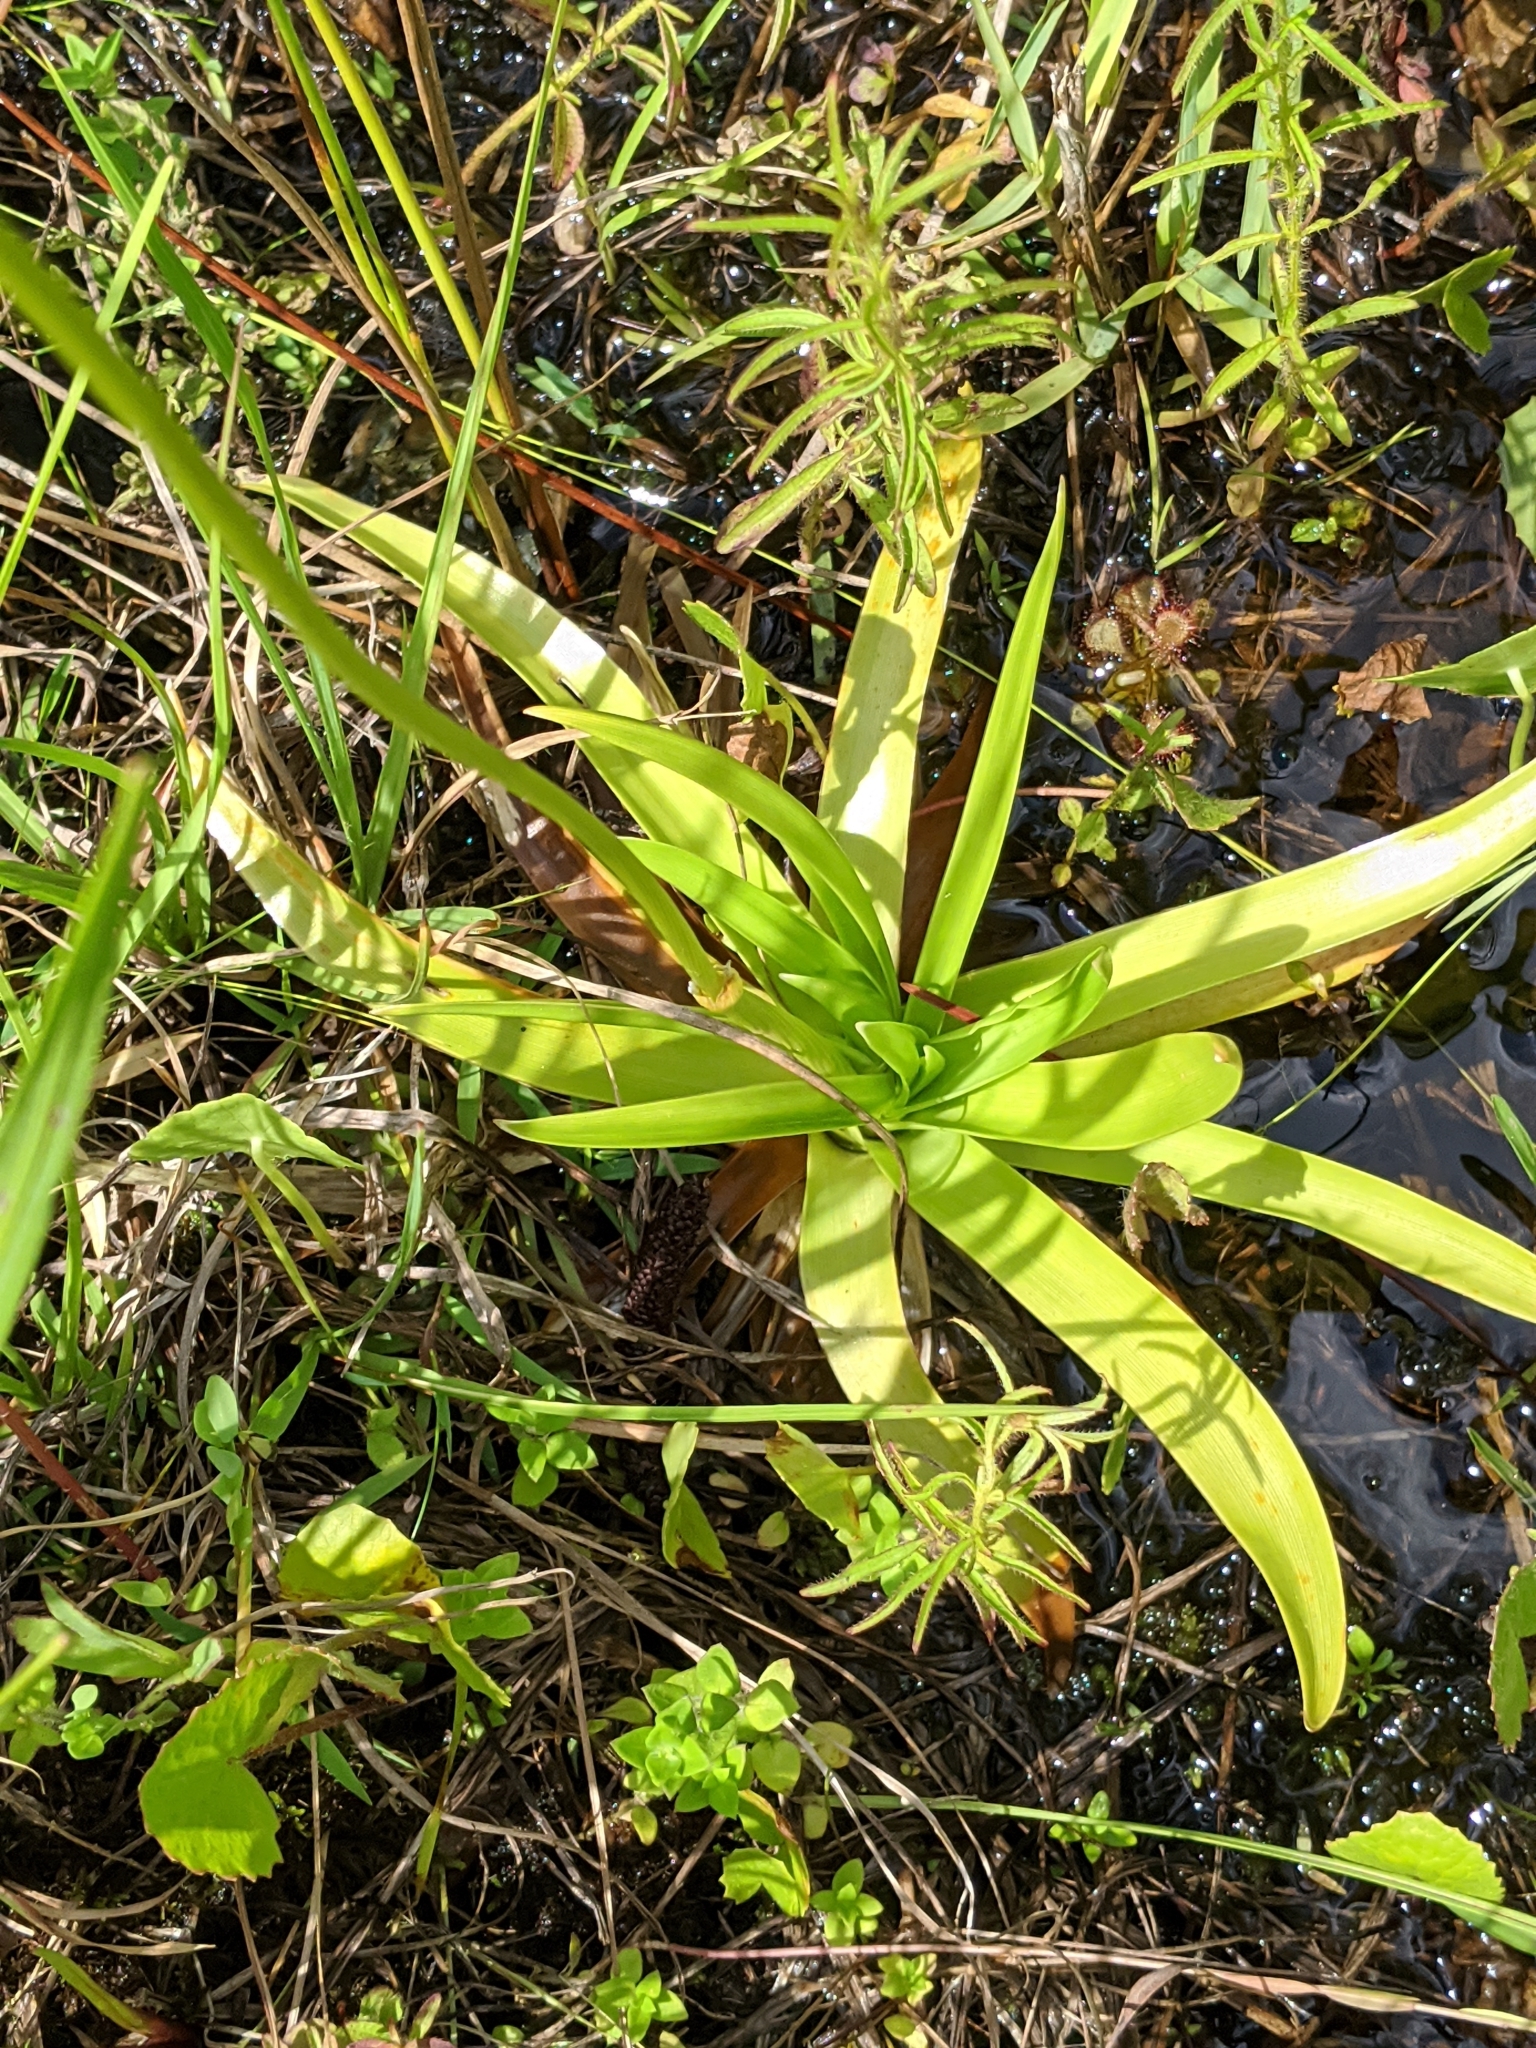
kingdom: Plantae
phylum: Tracheophyta
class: Liliopsida
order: Poales
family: Eriocaulaceae
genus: Eriocaulon
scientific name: Eriocaulon decangulare
